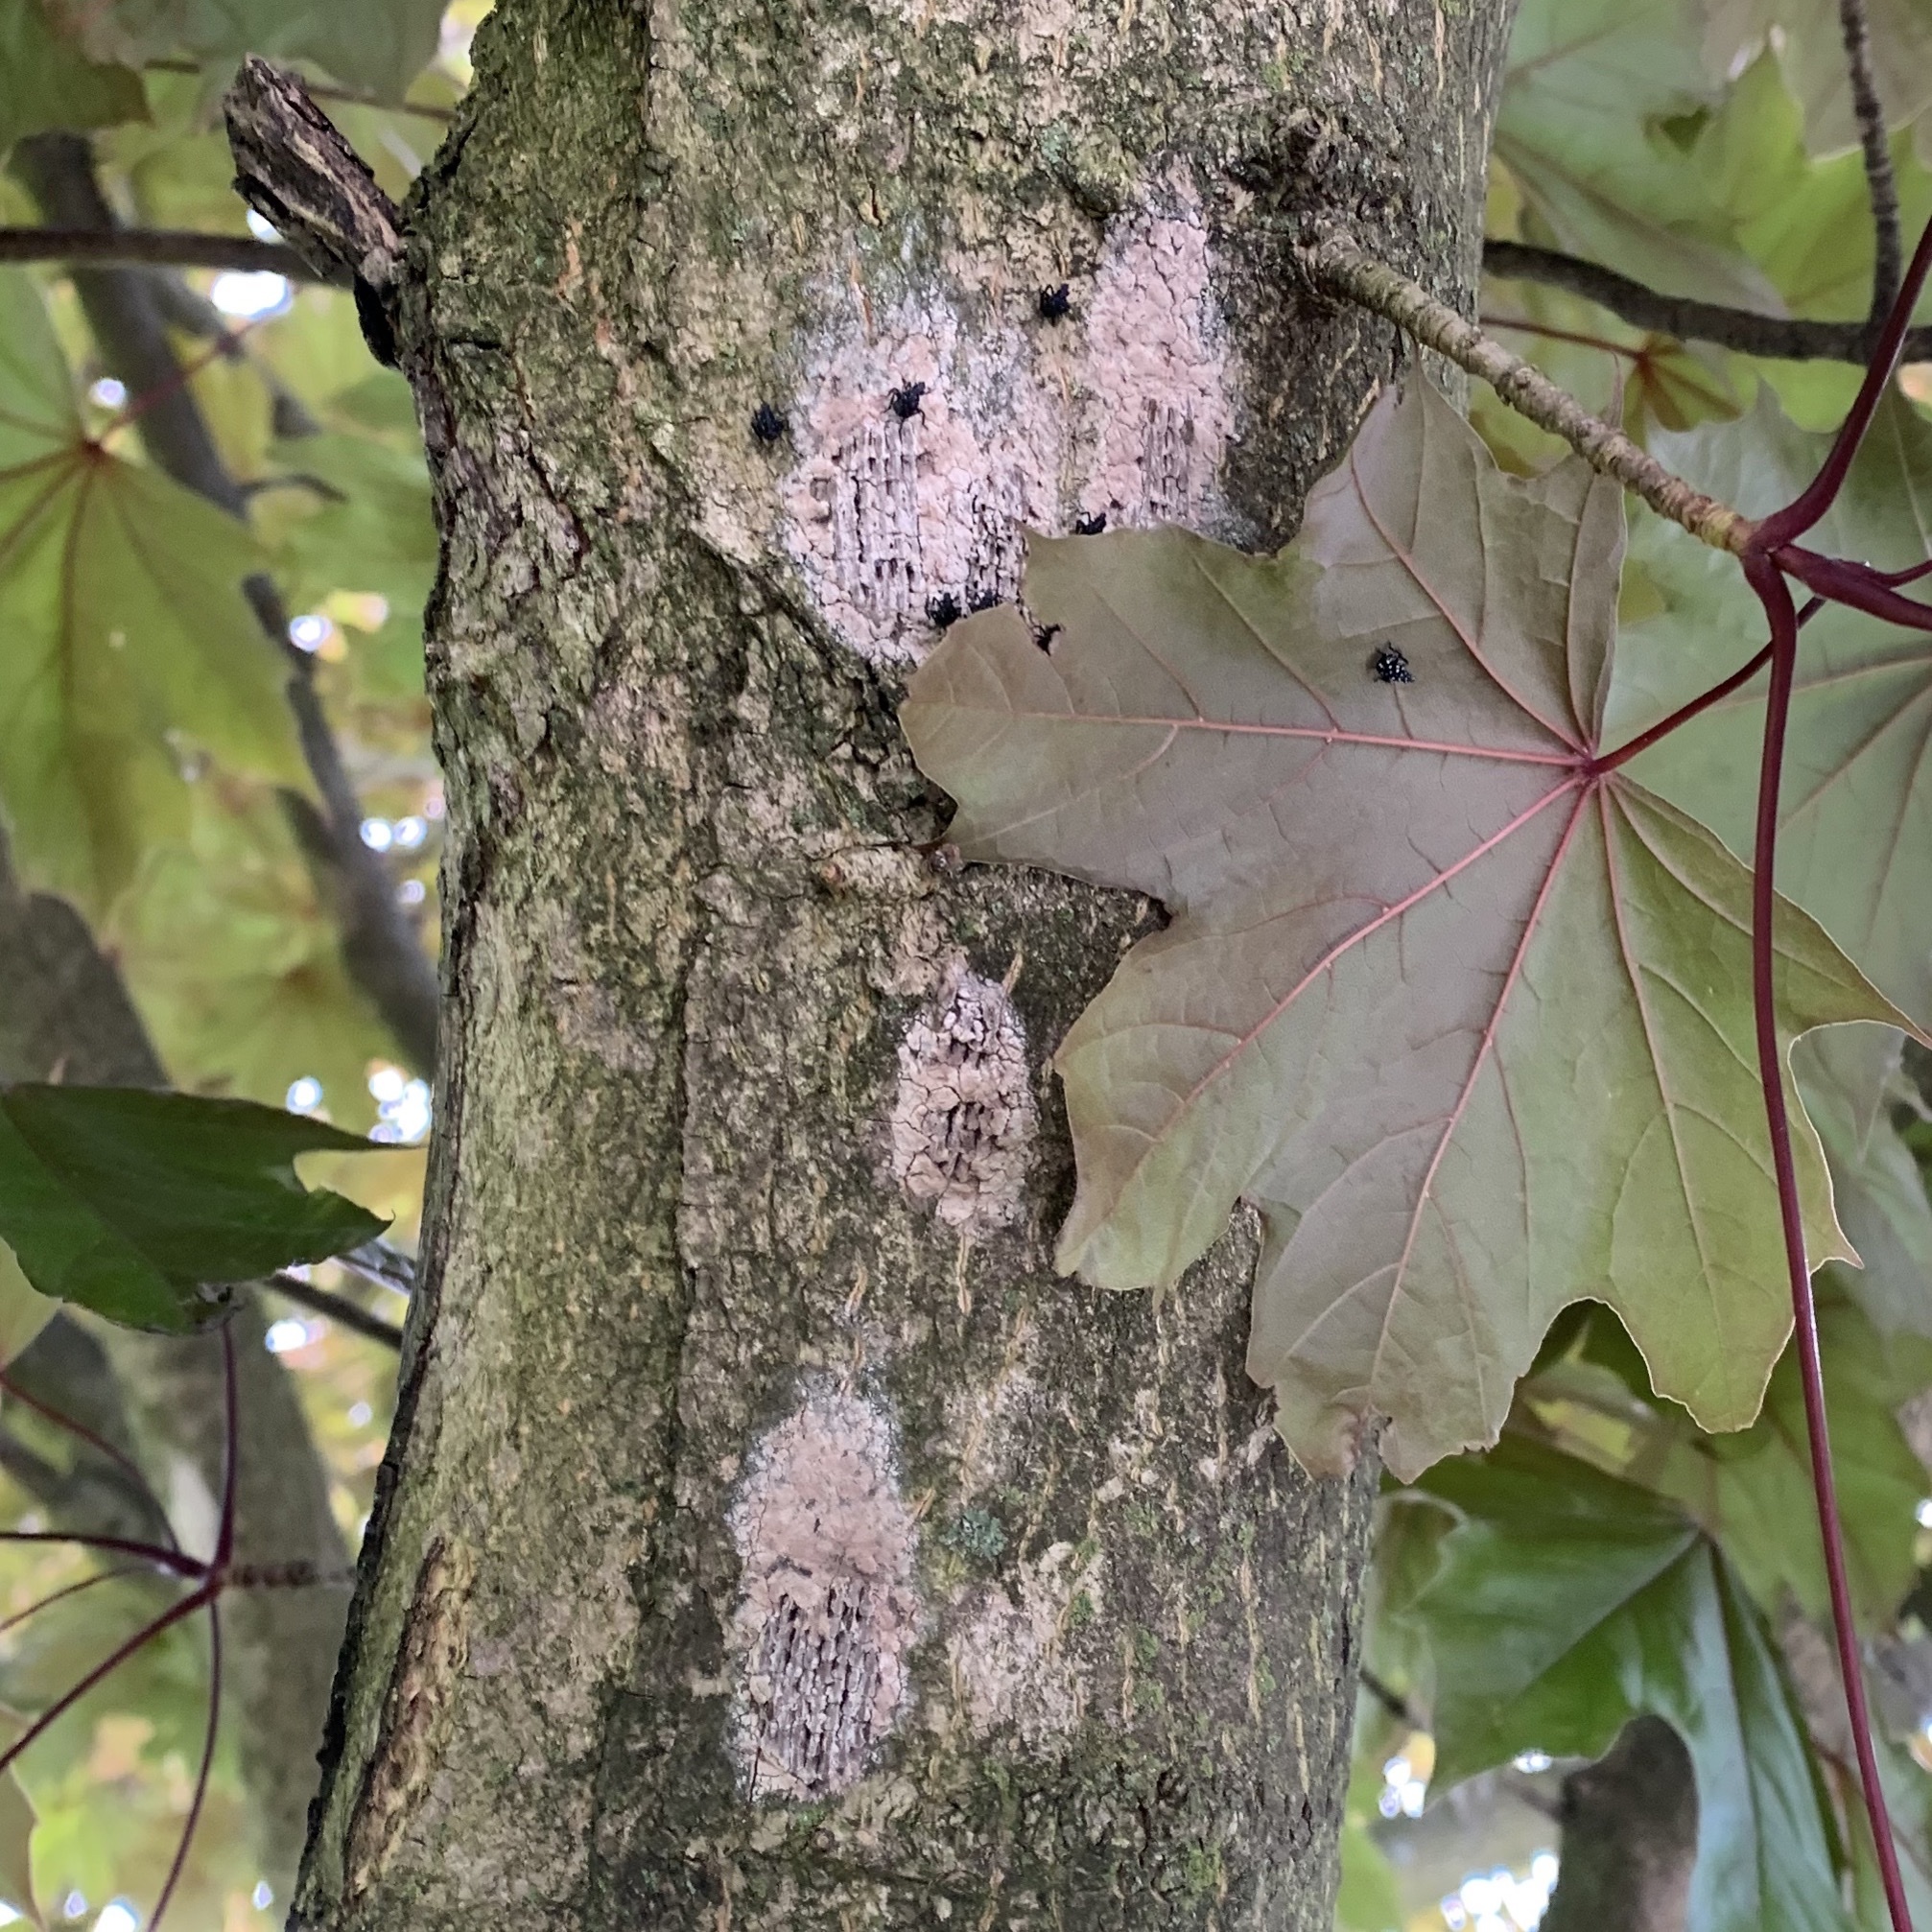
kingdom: Animalia
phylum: Arthropoda
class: Insecta
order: Hemiptera
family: Fulgoridae
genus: Lycorma
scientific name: Lycorma delicatula
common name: Spotted lanternfly
